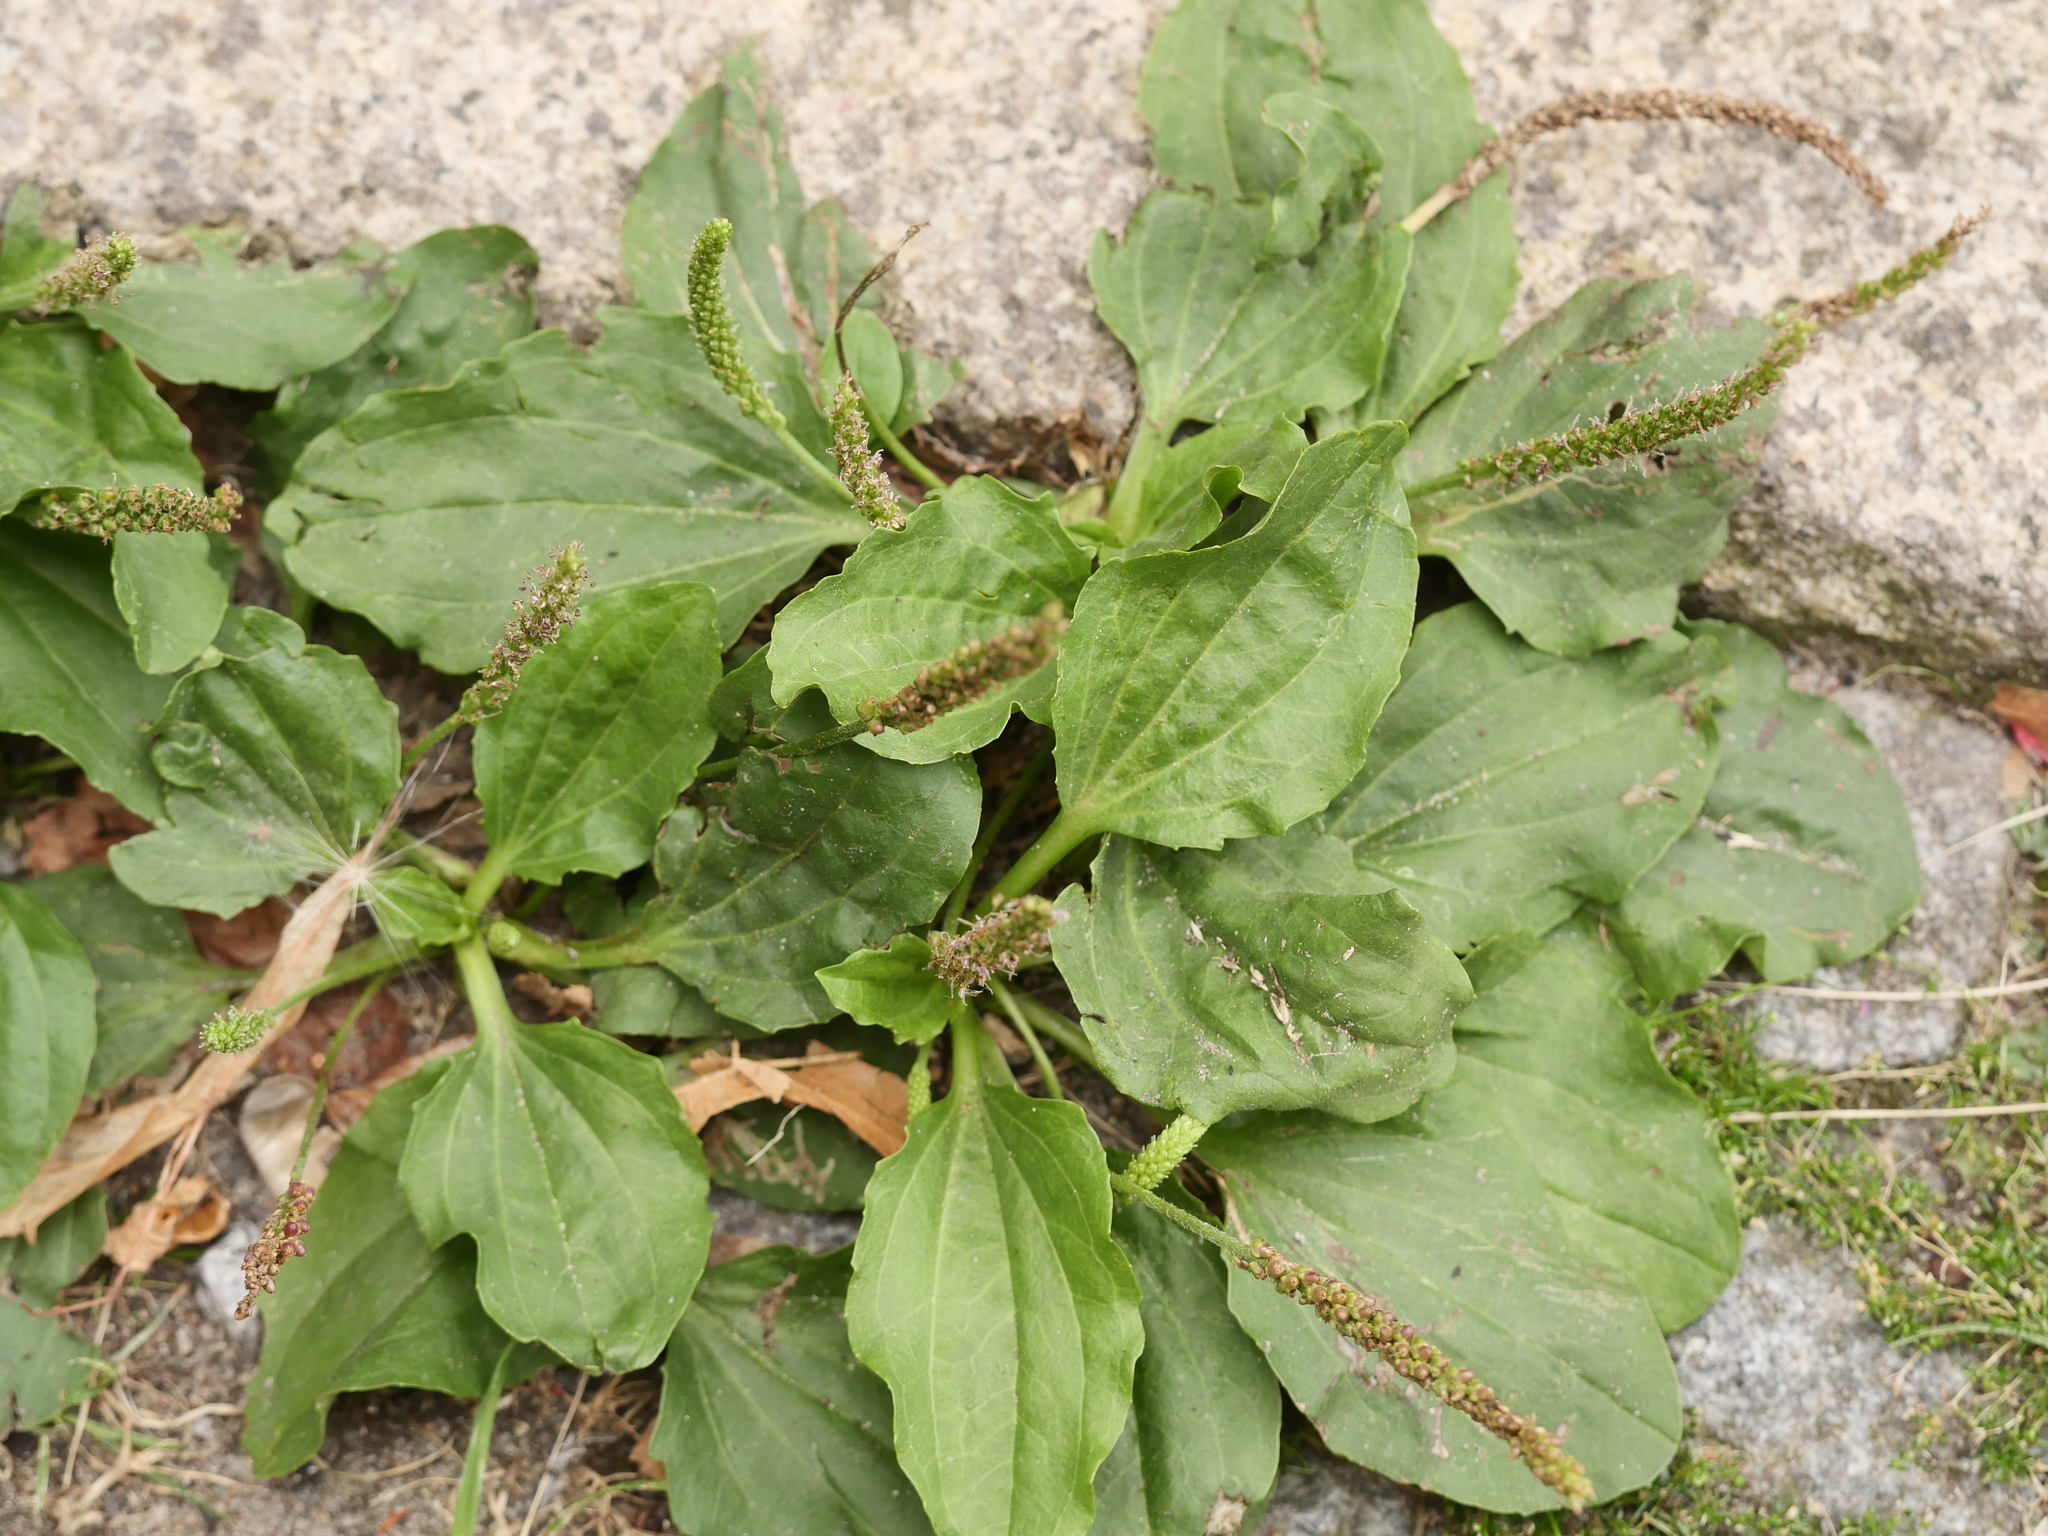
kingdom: Plantae
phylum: Tracheophyta
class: Magnoliopsida
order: Lamiales
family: Plantaginaceae
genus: Plantago
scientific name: Plantago major
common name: Common plantain
